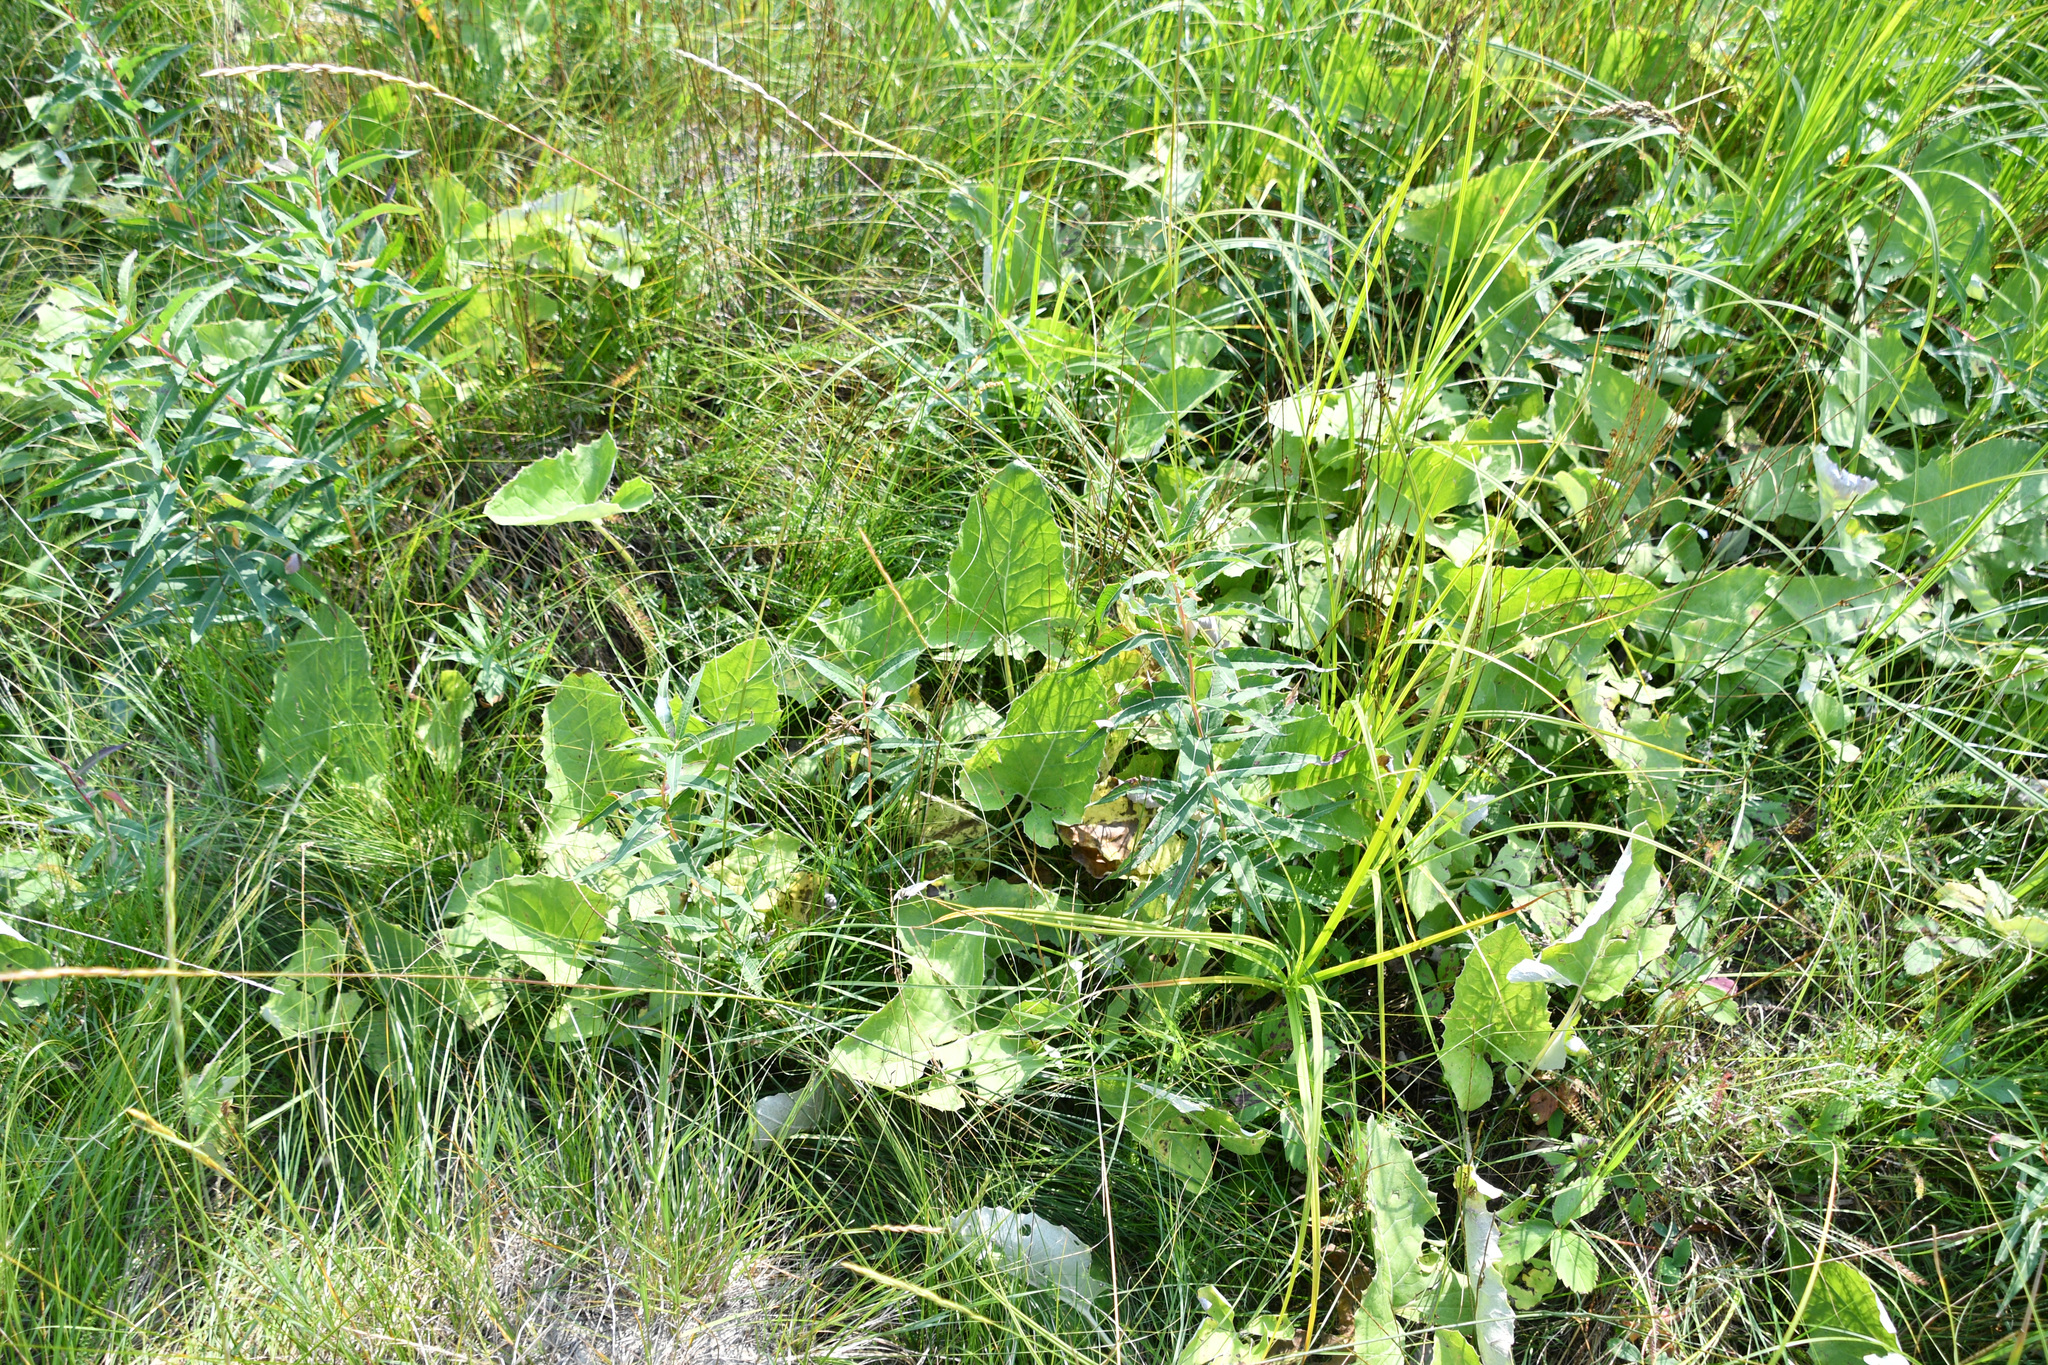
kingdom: Plantae
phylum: Tracheophyta
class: Magnoliopsida
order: Asterales
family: Asteraceae
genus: Petasites
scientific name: Petasites frigidus
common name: Arctic butterbur
